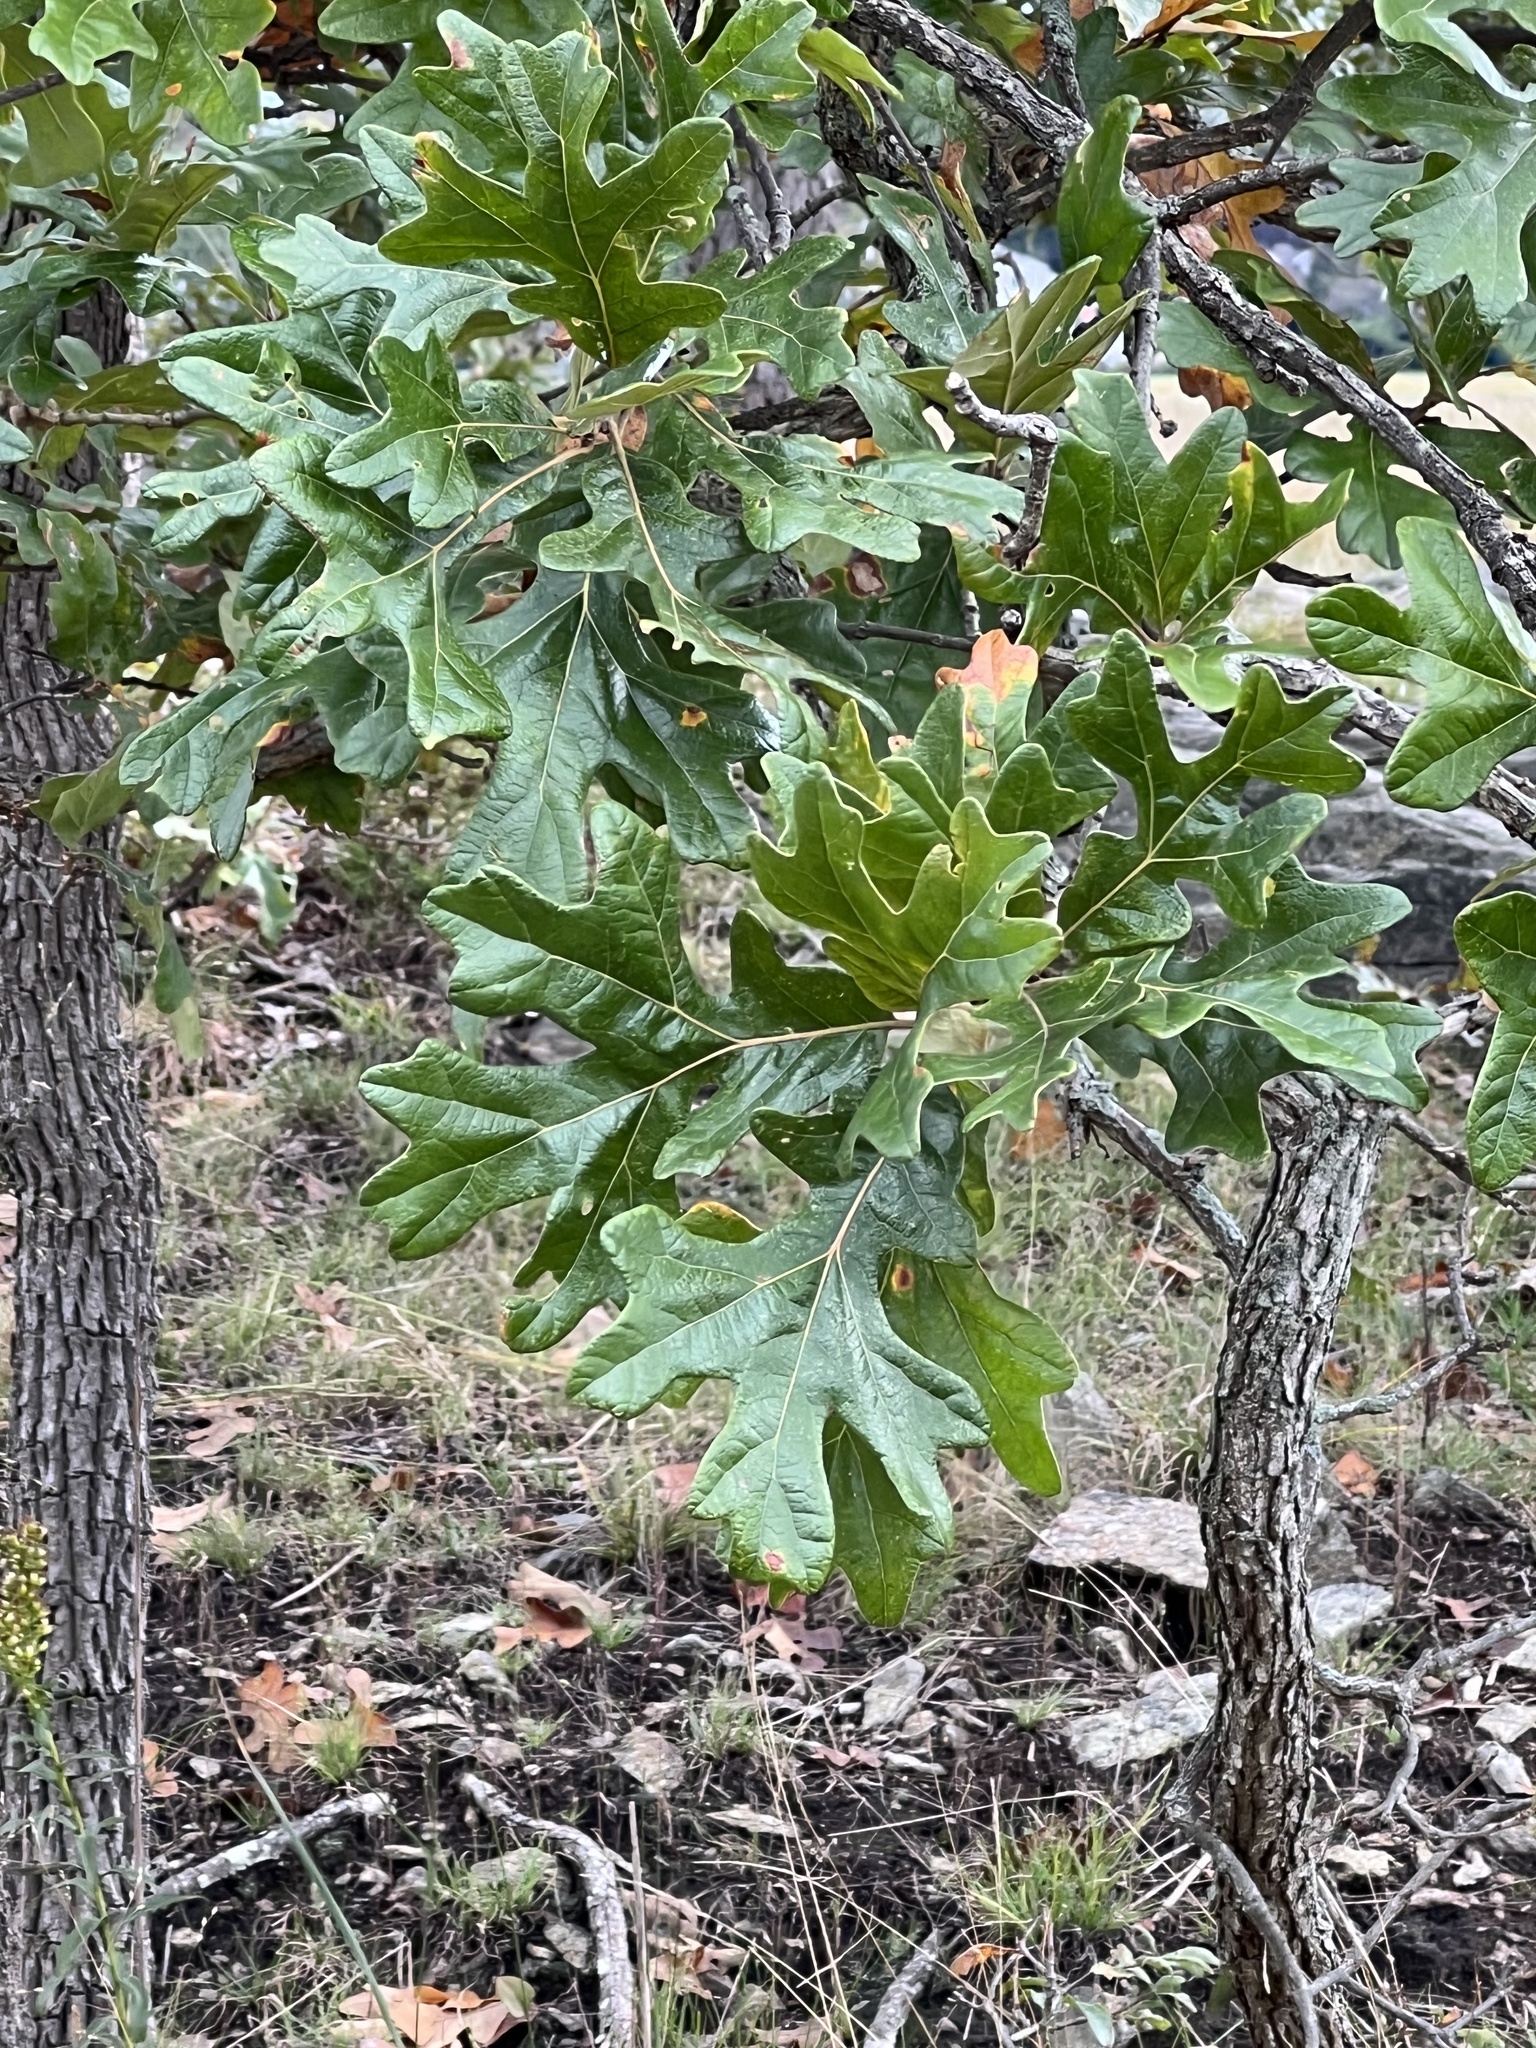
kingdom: Plantae
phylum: Tracheophyta
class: Magnoliopsida
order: Fagales
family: Fagaceae
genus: Quercus
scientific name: Quercus stellata
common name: Post oak
